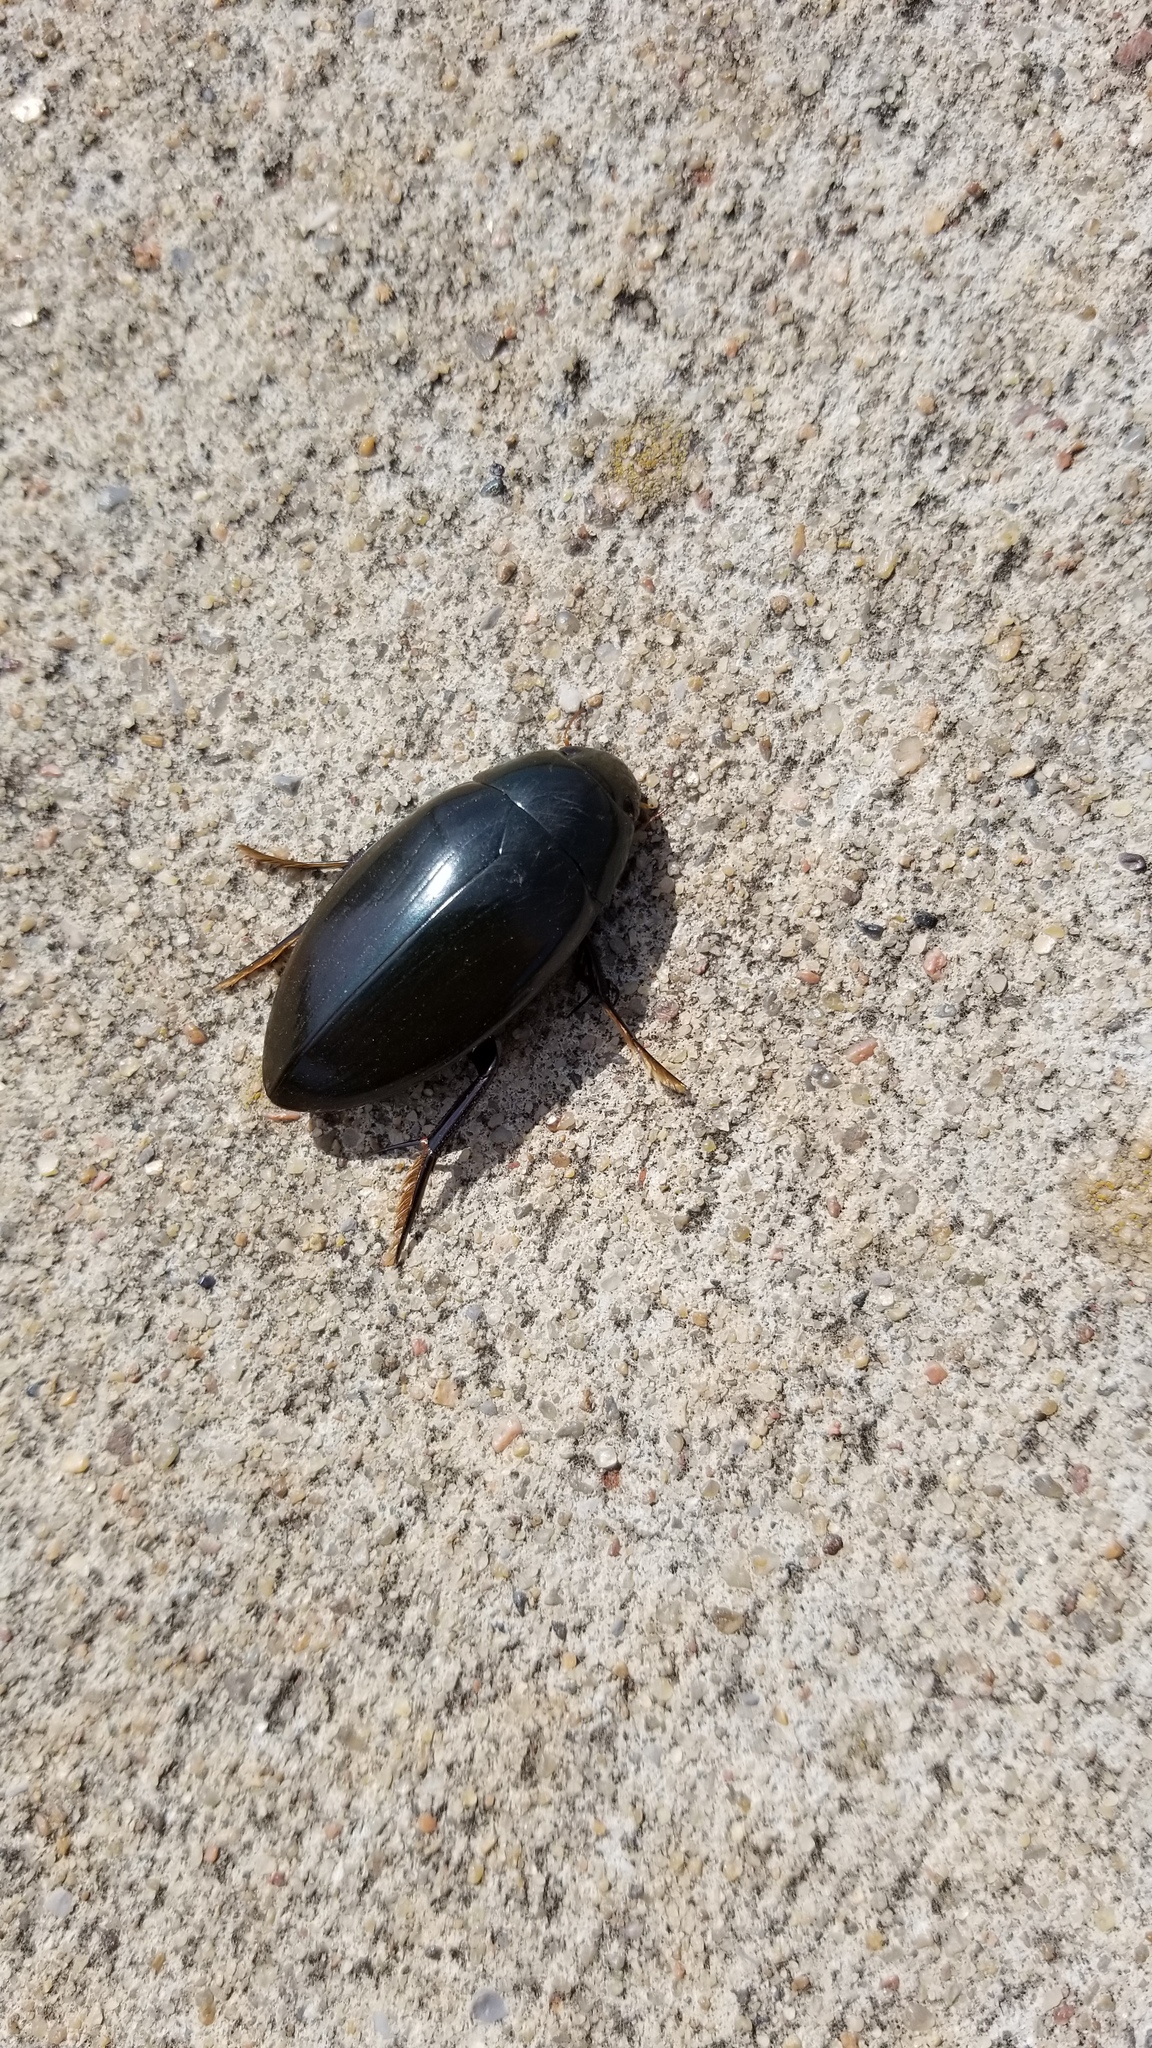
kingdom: Animalia
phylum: Arthropoda
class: Insecta
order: Coleoptera
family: Hydrophilidae
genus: Hydrophilus
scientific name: Hydrophilus triangularis
